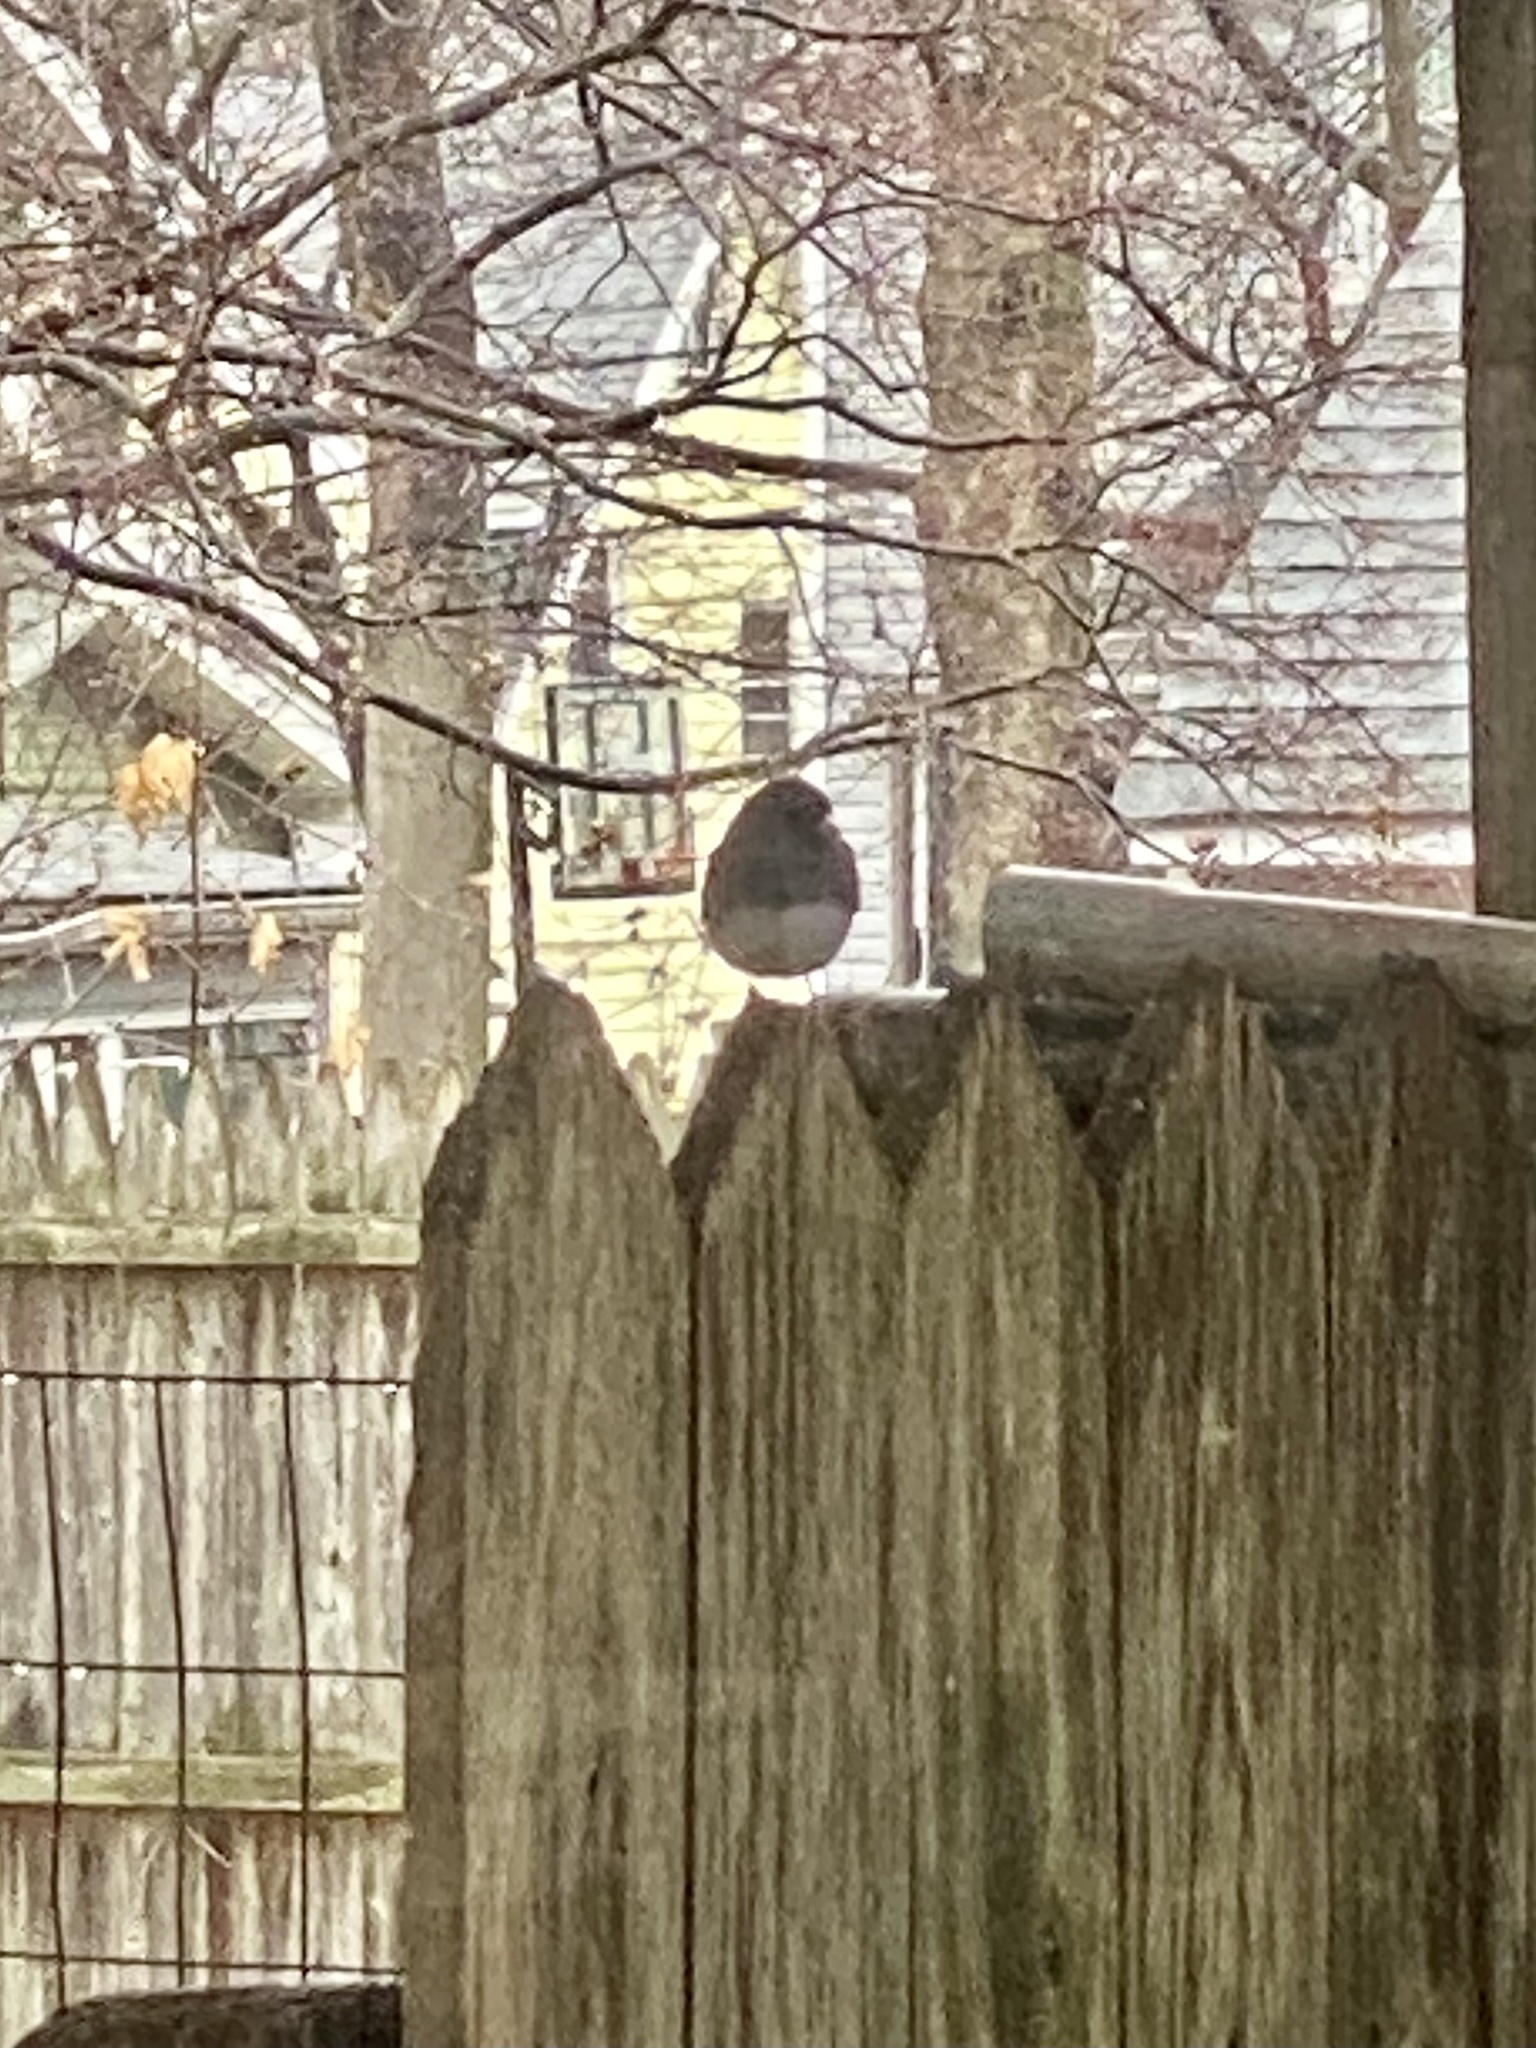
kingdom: Animalia
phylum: Chordata
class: Aves
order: Passeriformes
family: Passerellidae
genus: Junco
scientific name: Junco hyemalis
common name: Dark-eyed junco
